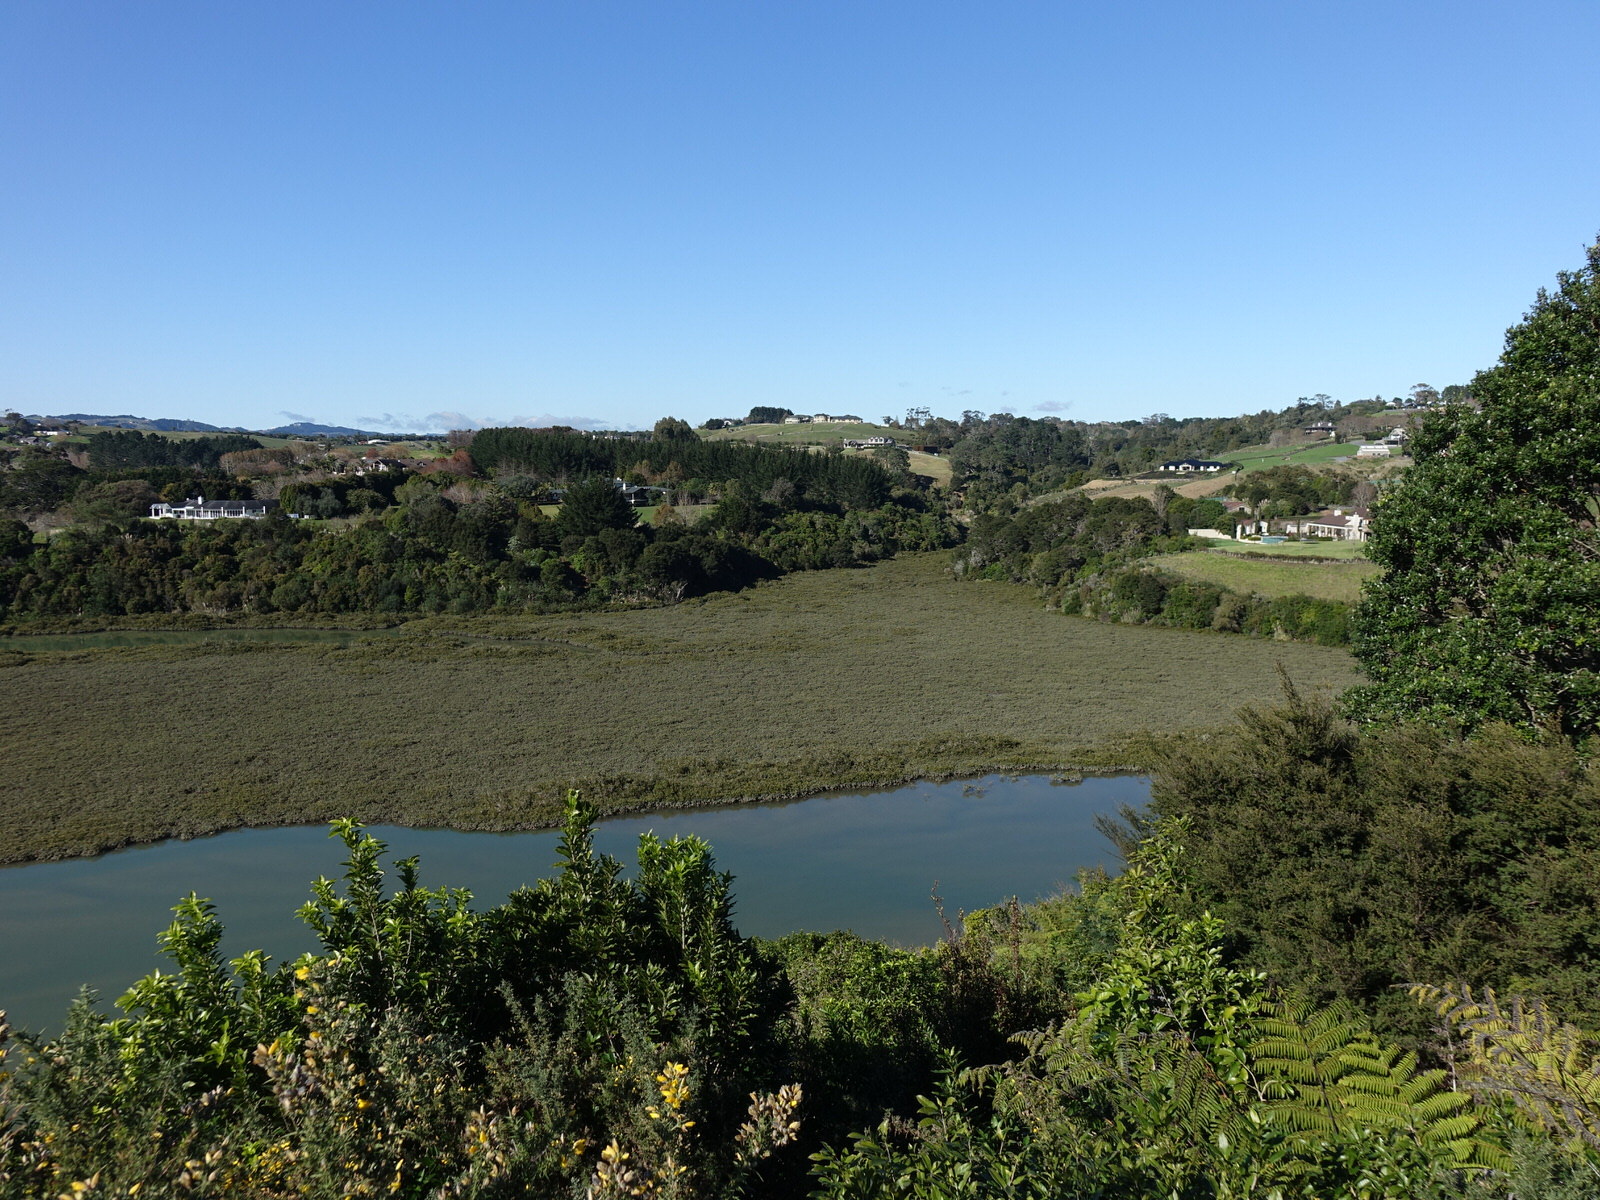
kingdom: Plantae
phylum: Tracheophyta
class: Magnoliopsida
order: Lamiales
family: Acanthaceae
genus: Avicennia
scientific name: Avicennia marina
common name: Gray mangrove
